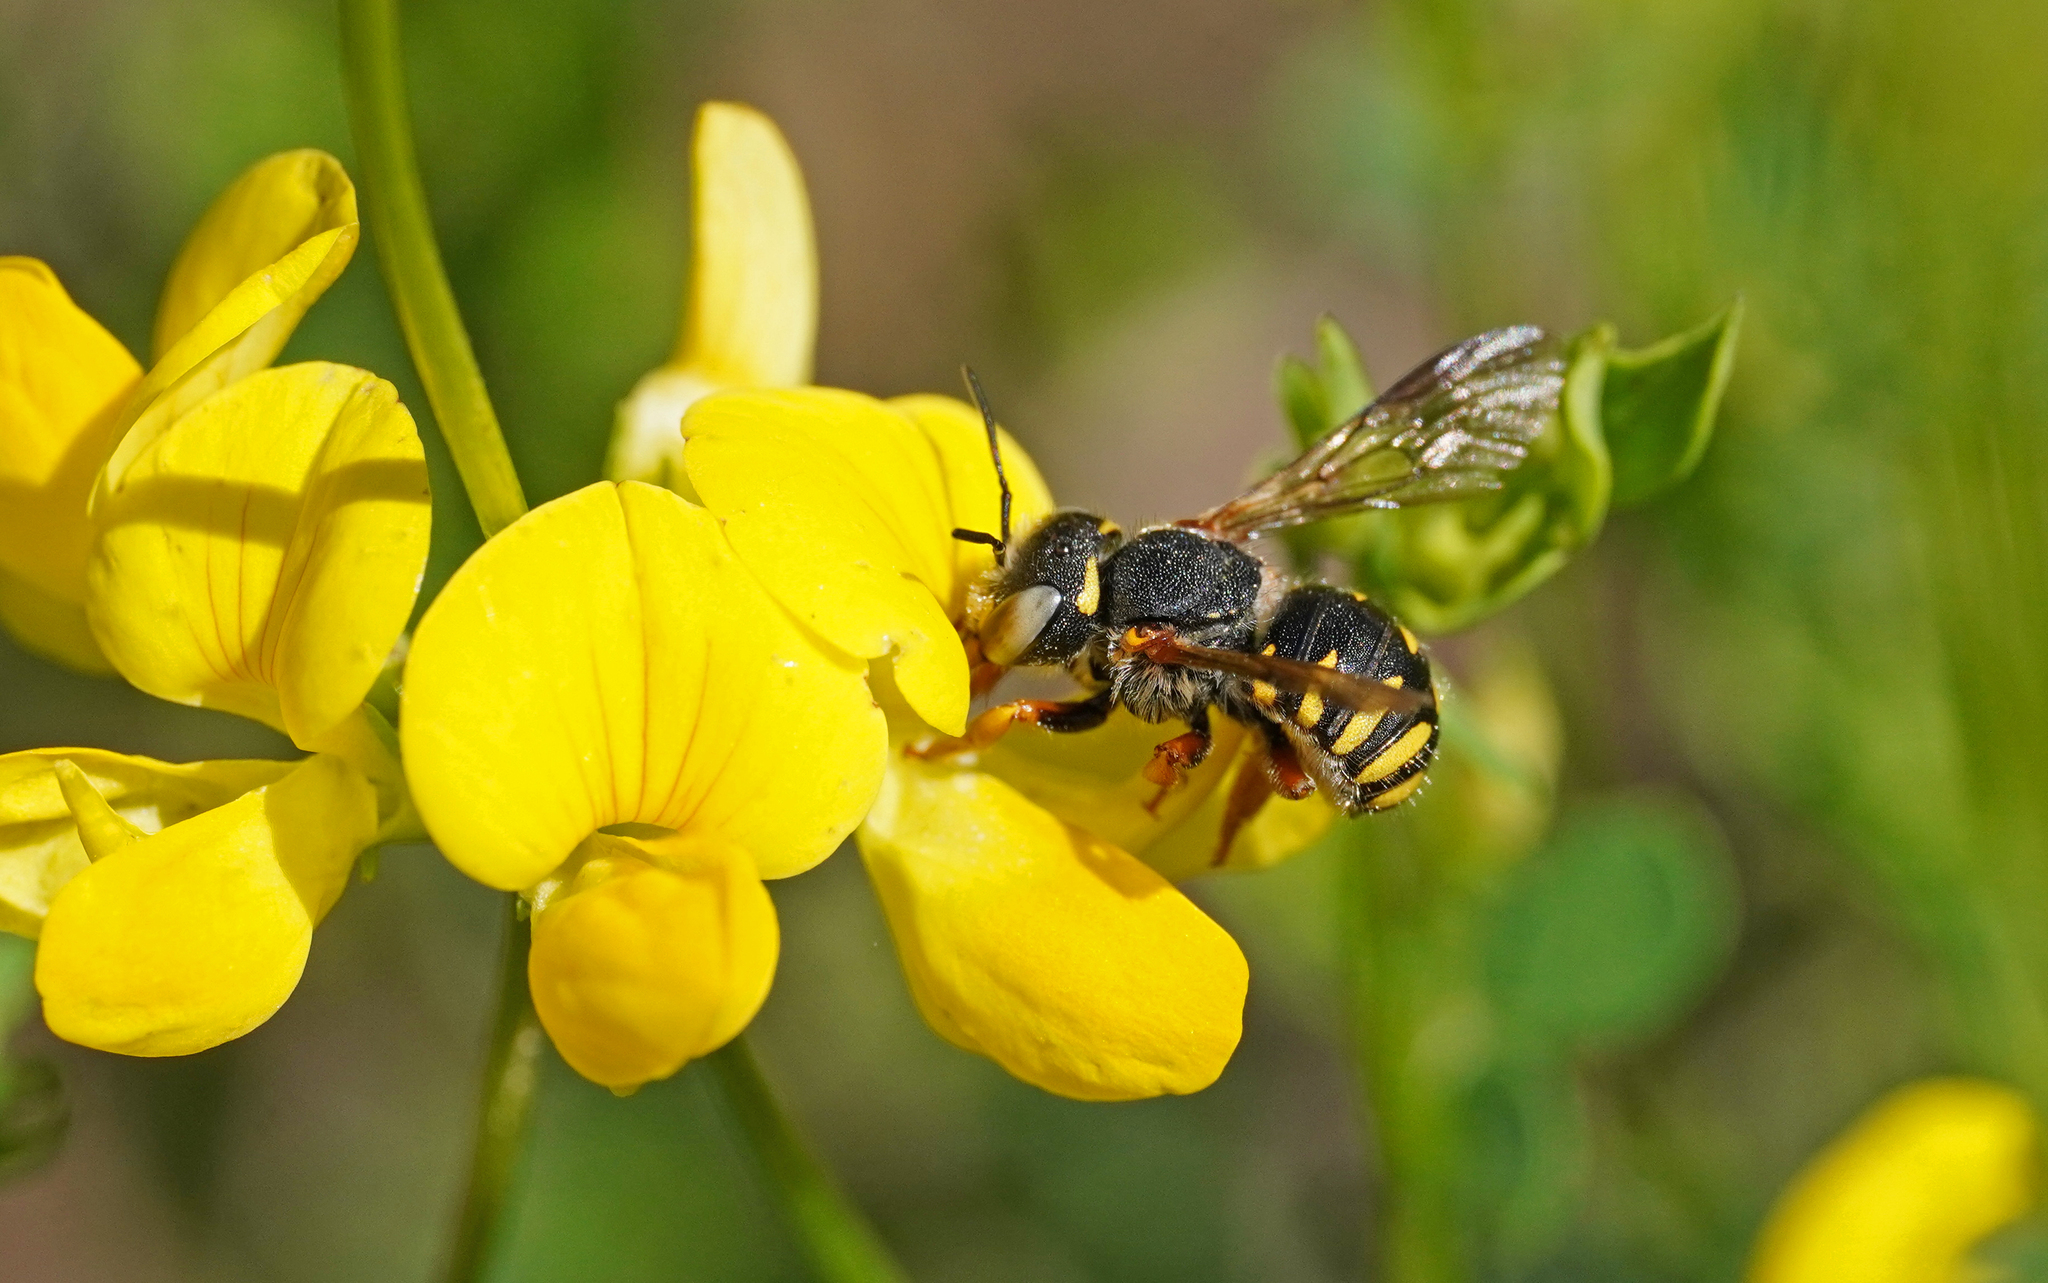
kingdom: Animalia
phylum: Arthropoda
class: Insecta
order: Hymenoptera
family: Megachilidae
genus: Anthidium
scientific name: Anthidium oblongatum
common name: Oblong wool carder bee
